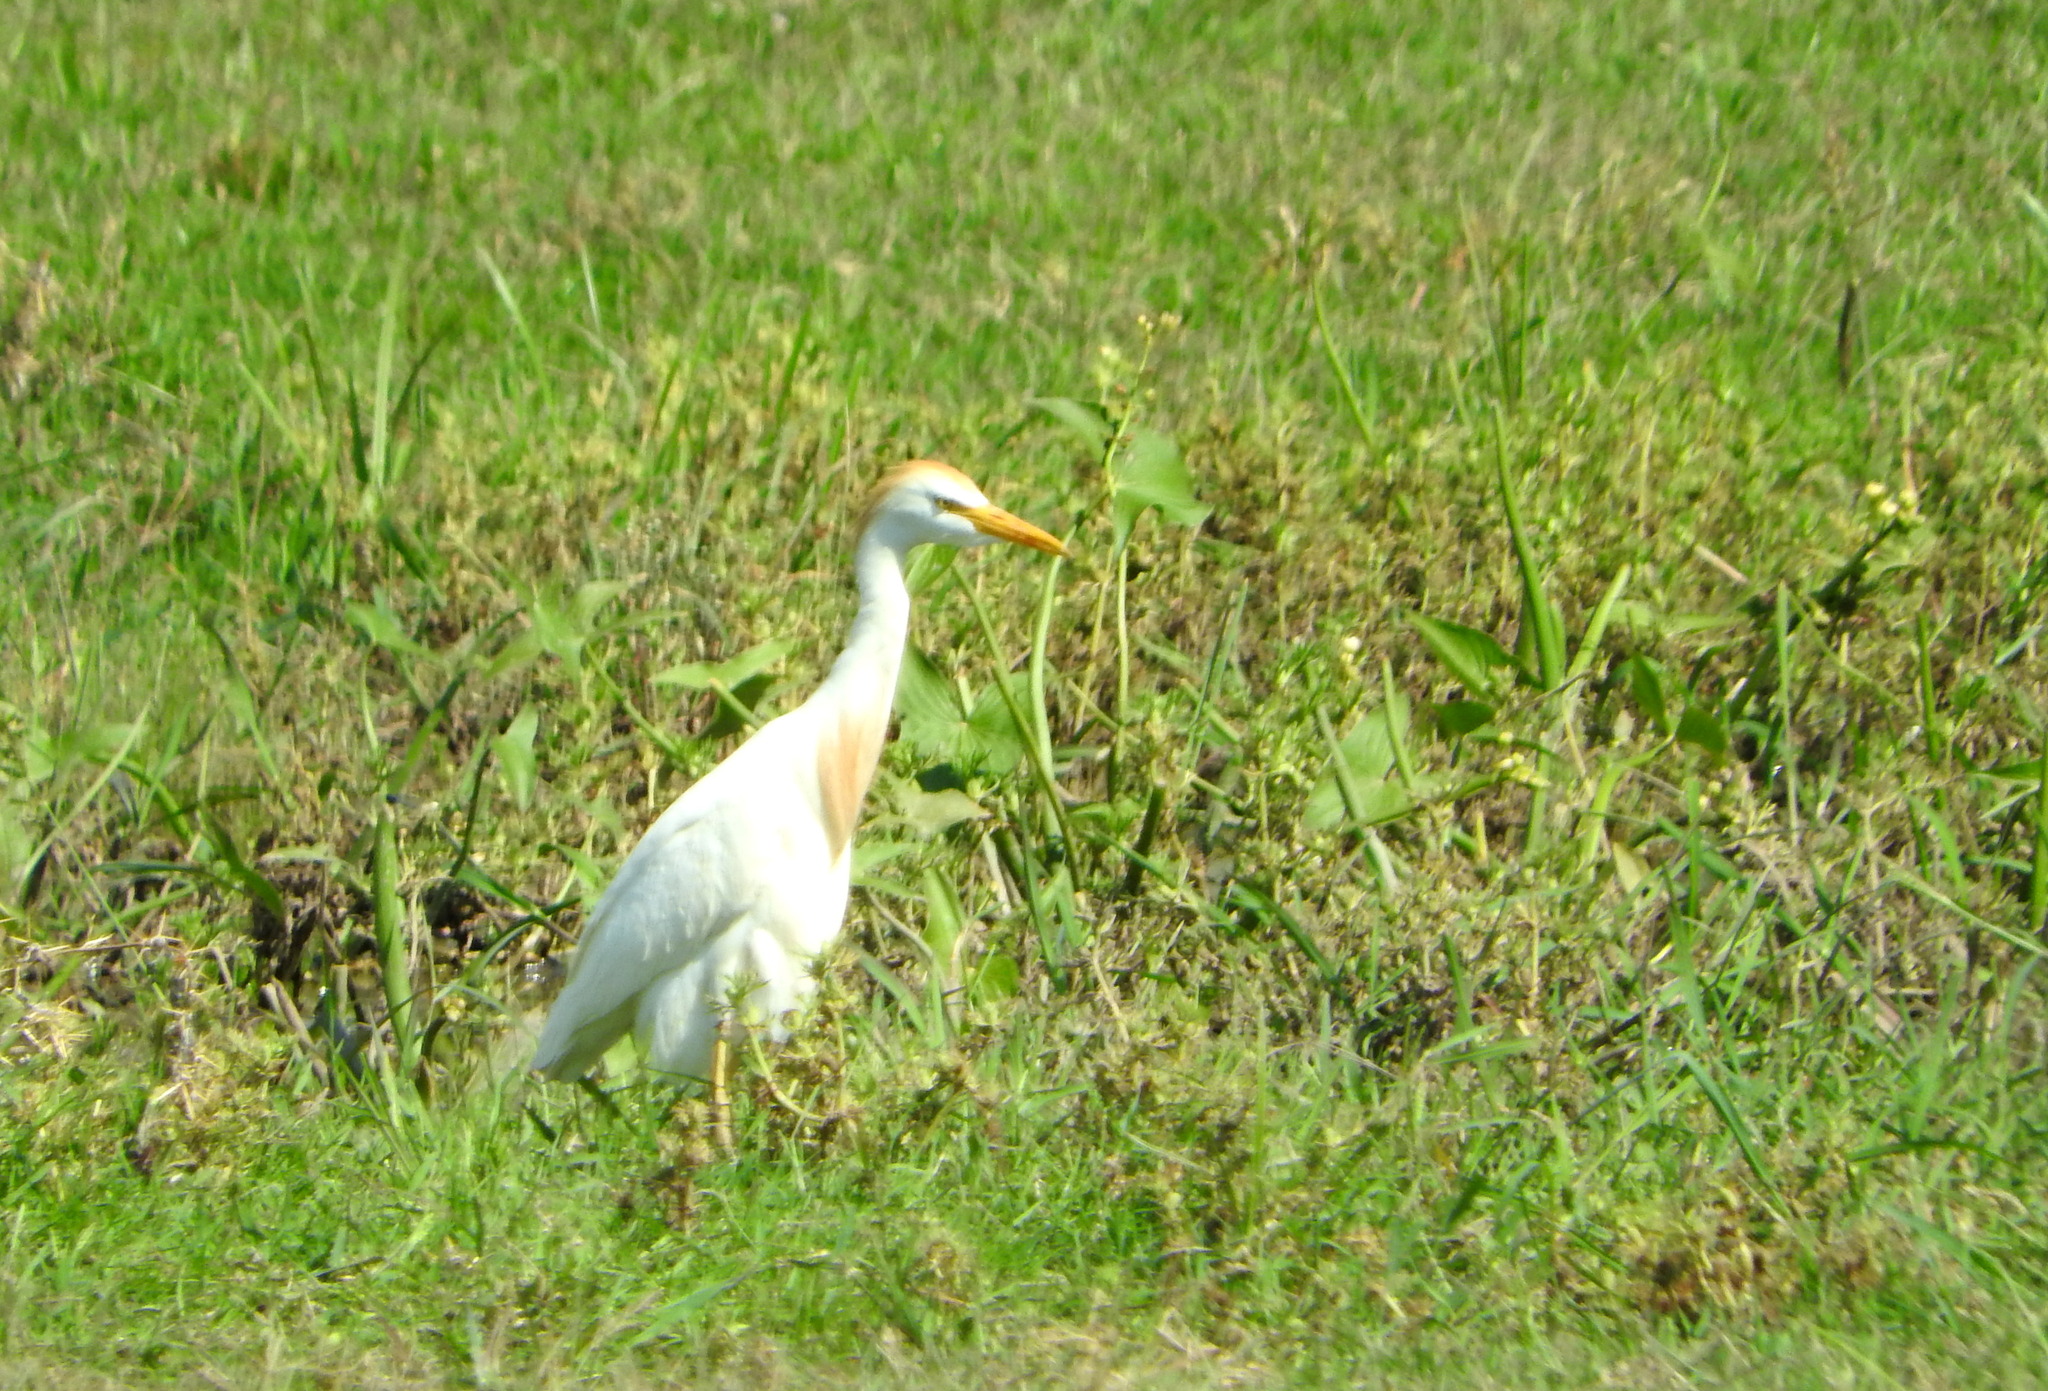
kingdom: Animalia
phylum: Chordata
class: Aves
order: Pelecaniformes
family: Ardeidae
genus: Bubulcus
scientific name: Bubulcus ibis
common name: Cattle egret
